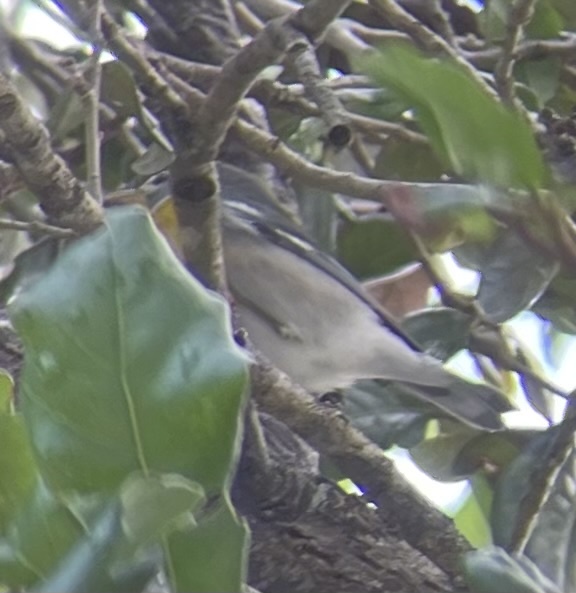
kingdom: Animalia
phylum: Chordata
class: Aves
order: Passeriformes
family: Parulidae
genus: Setophaga
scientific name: Setophaga americana
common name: Northern parula
